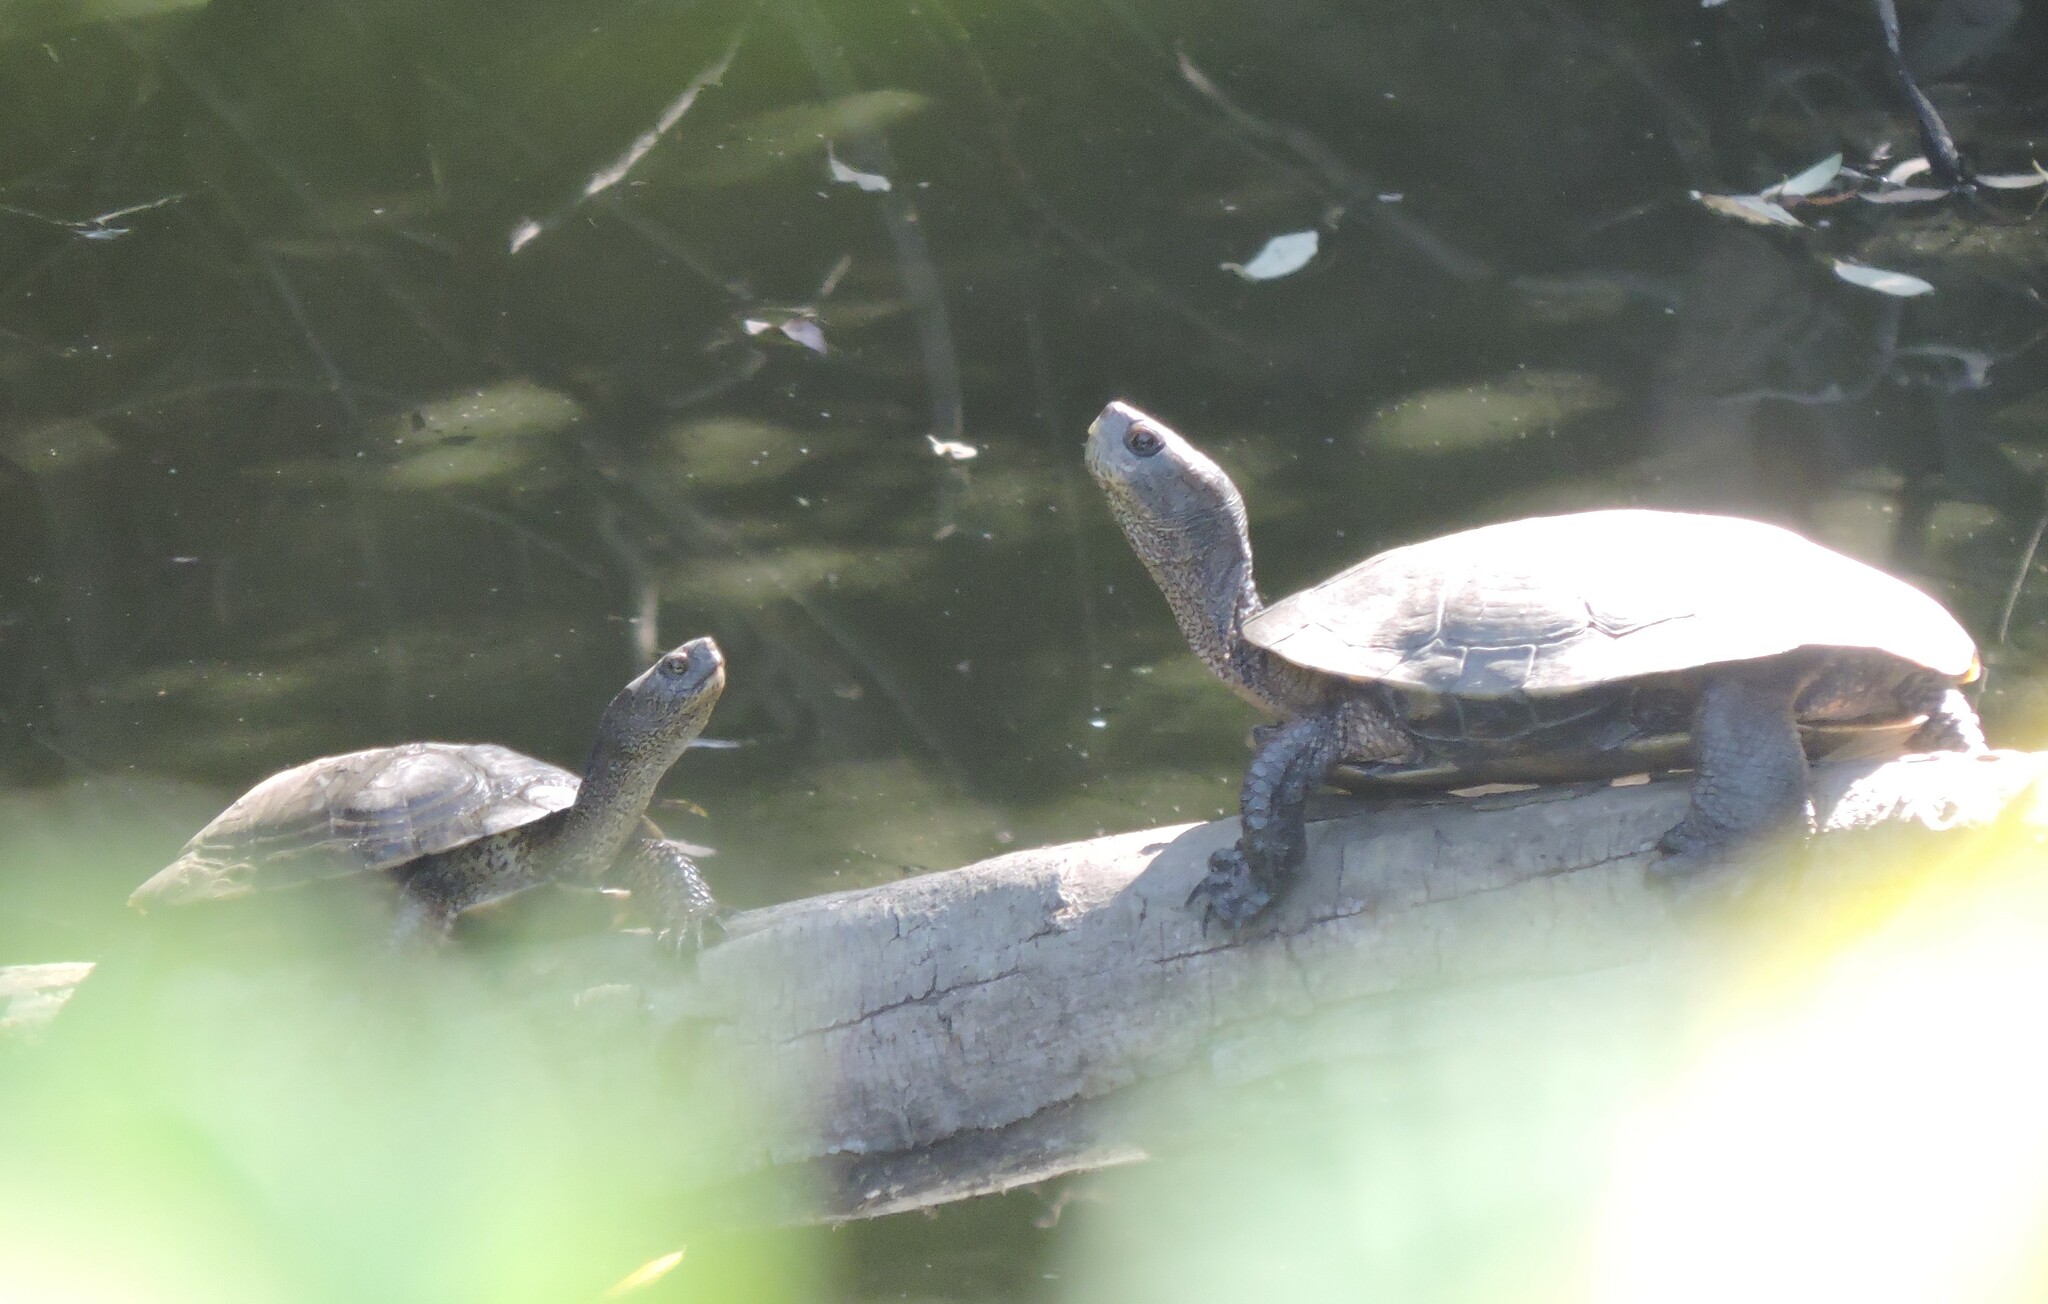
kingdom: Animalia
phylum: Chordata
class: Testudines
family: Emydidae
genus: Actinemys
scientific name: Actinemys marmorata
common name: Western pond turtle
